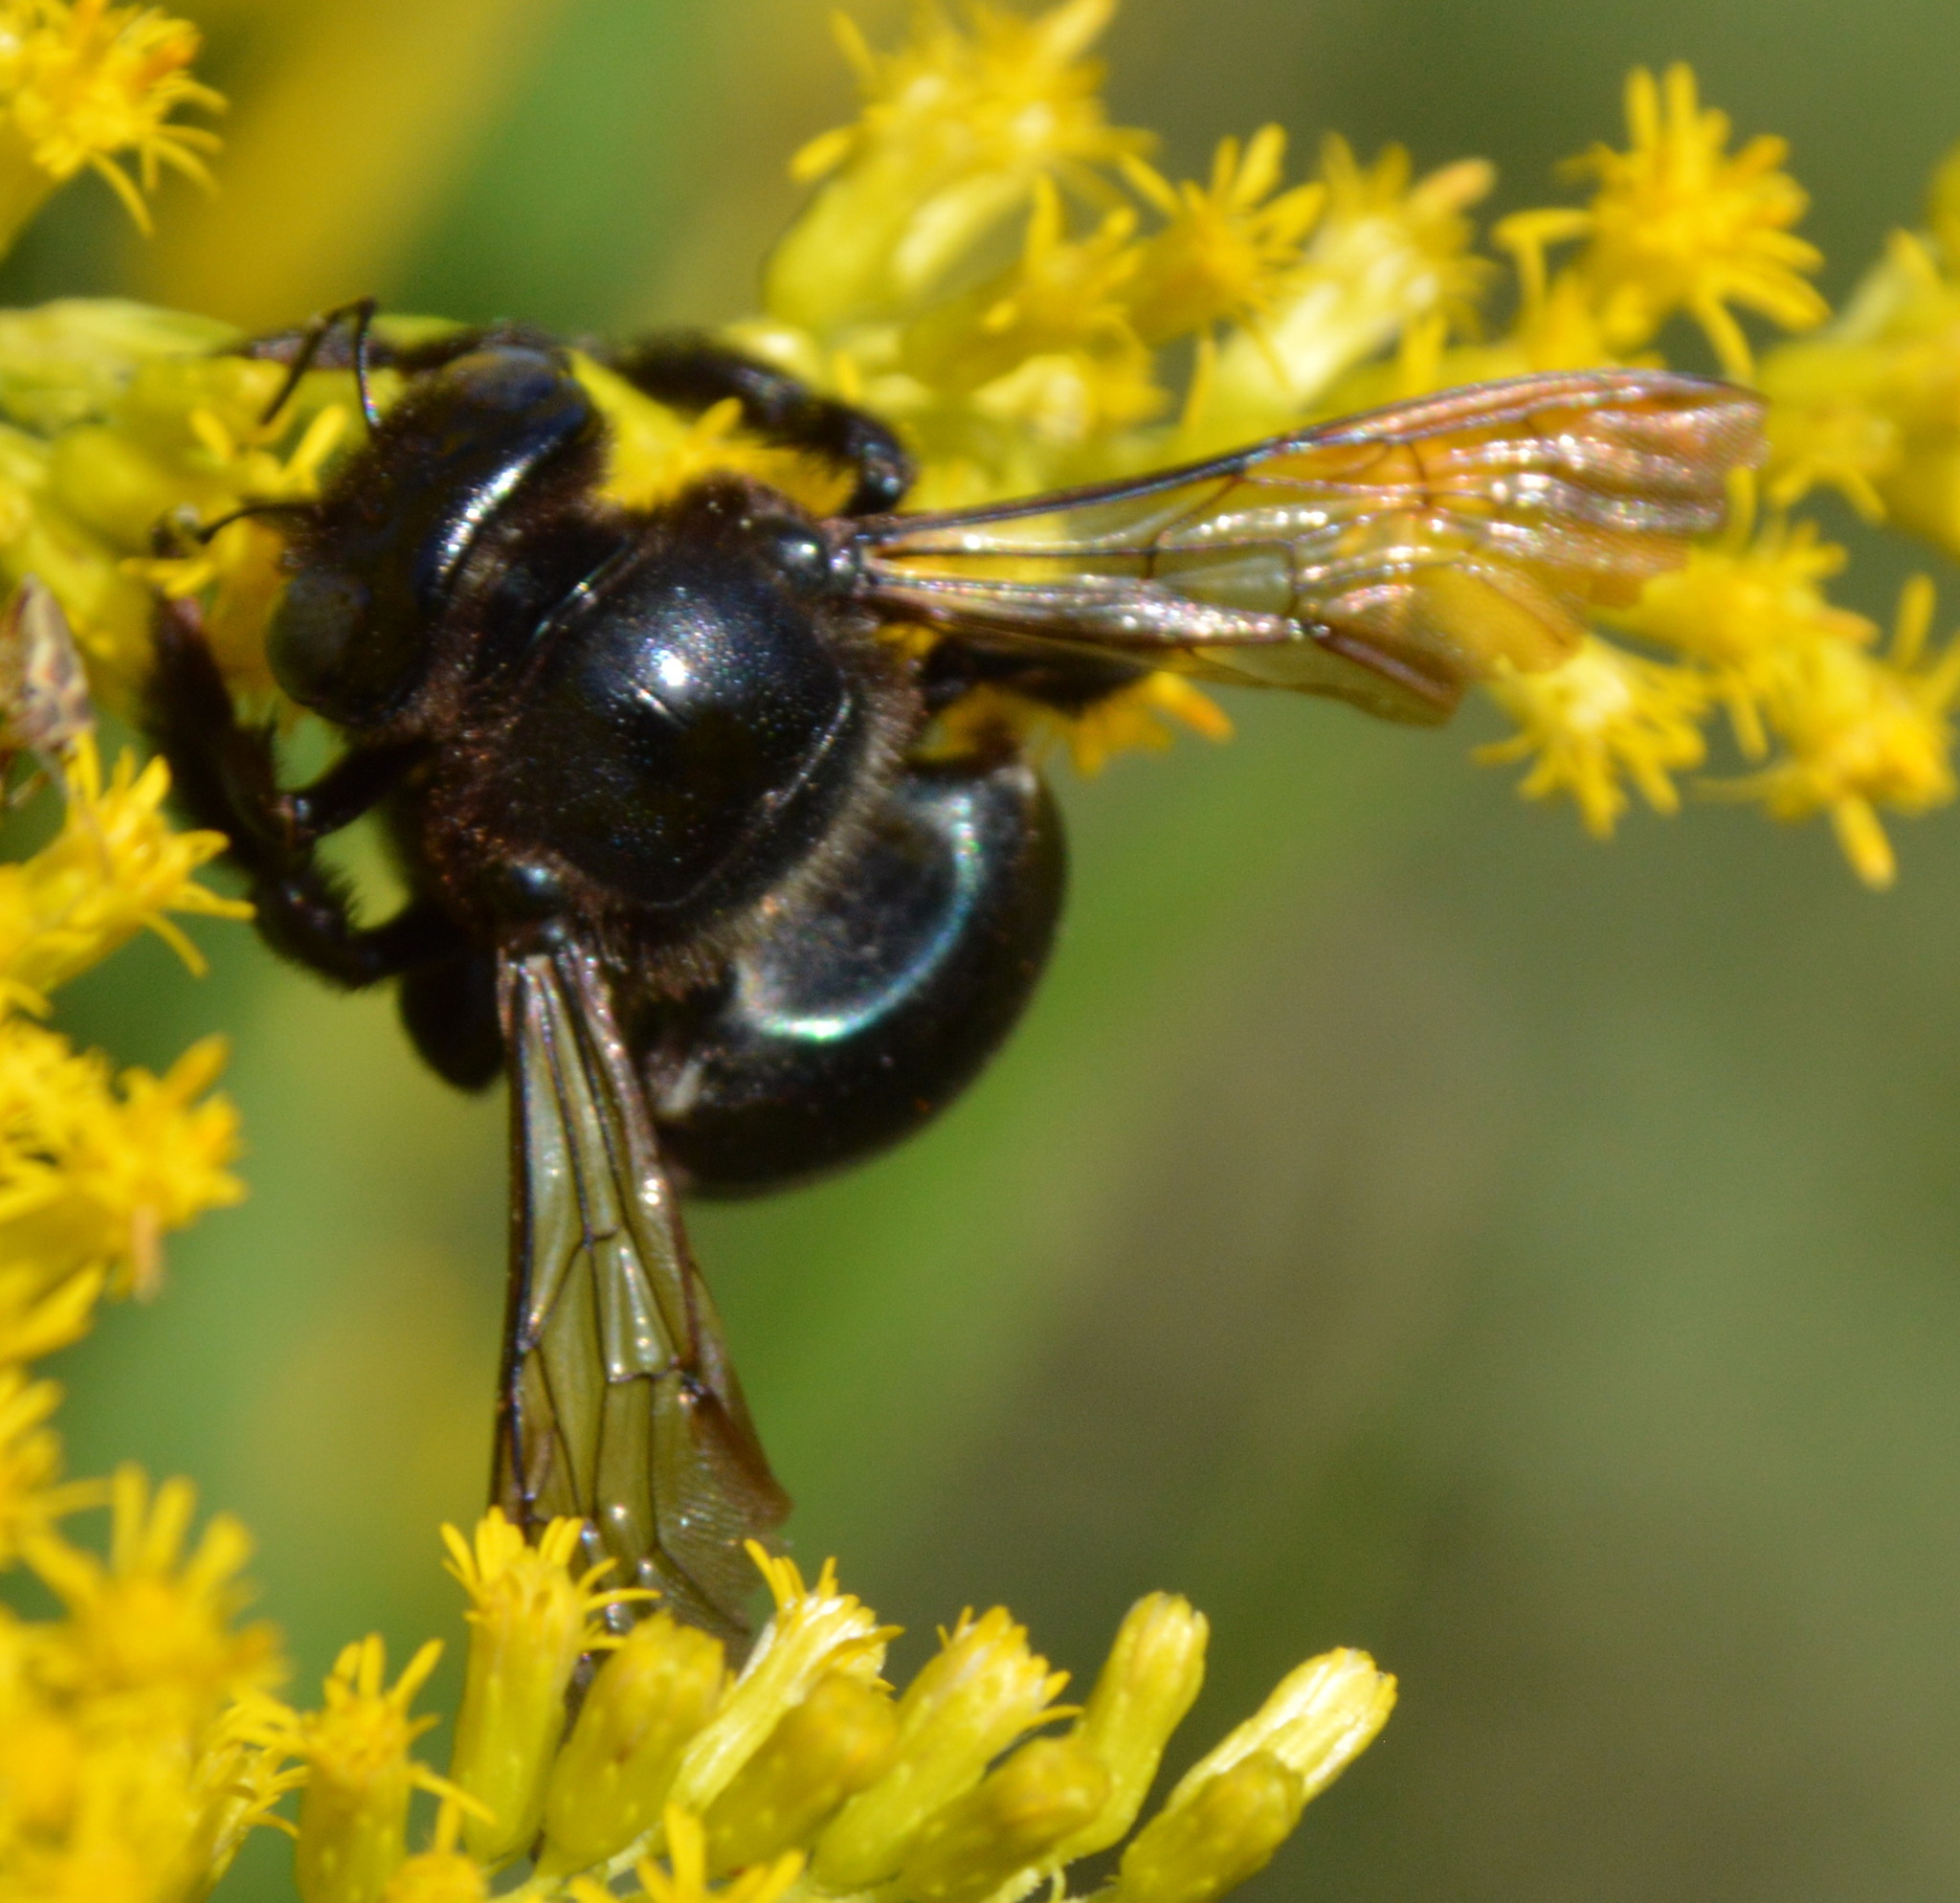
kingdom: Animalia
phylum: Arthropoda
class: Insecta
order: Hymenoptera
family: Apidae
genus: Xylocopa
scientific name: Xylocopa micans
